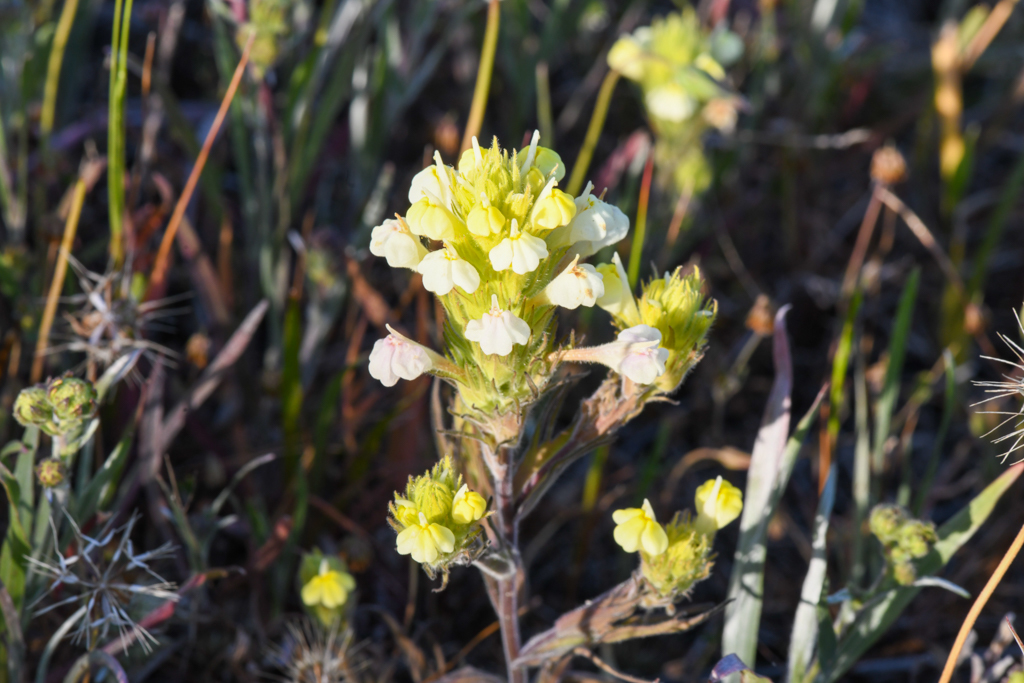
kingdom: Plantae
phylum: Tracheophyta
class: Magnoliopsida
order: Lamiales
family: Orobanchaceae
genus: Castilleja
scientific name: Castilleja rubicundula
